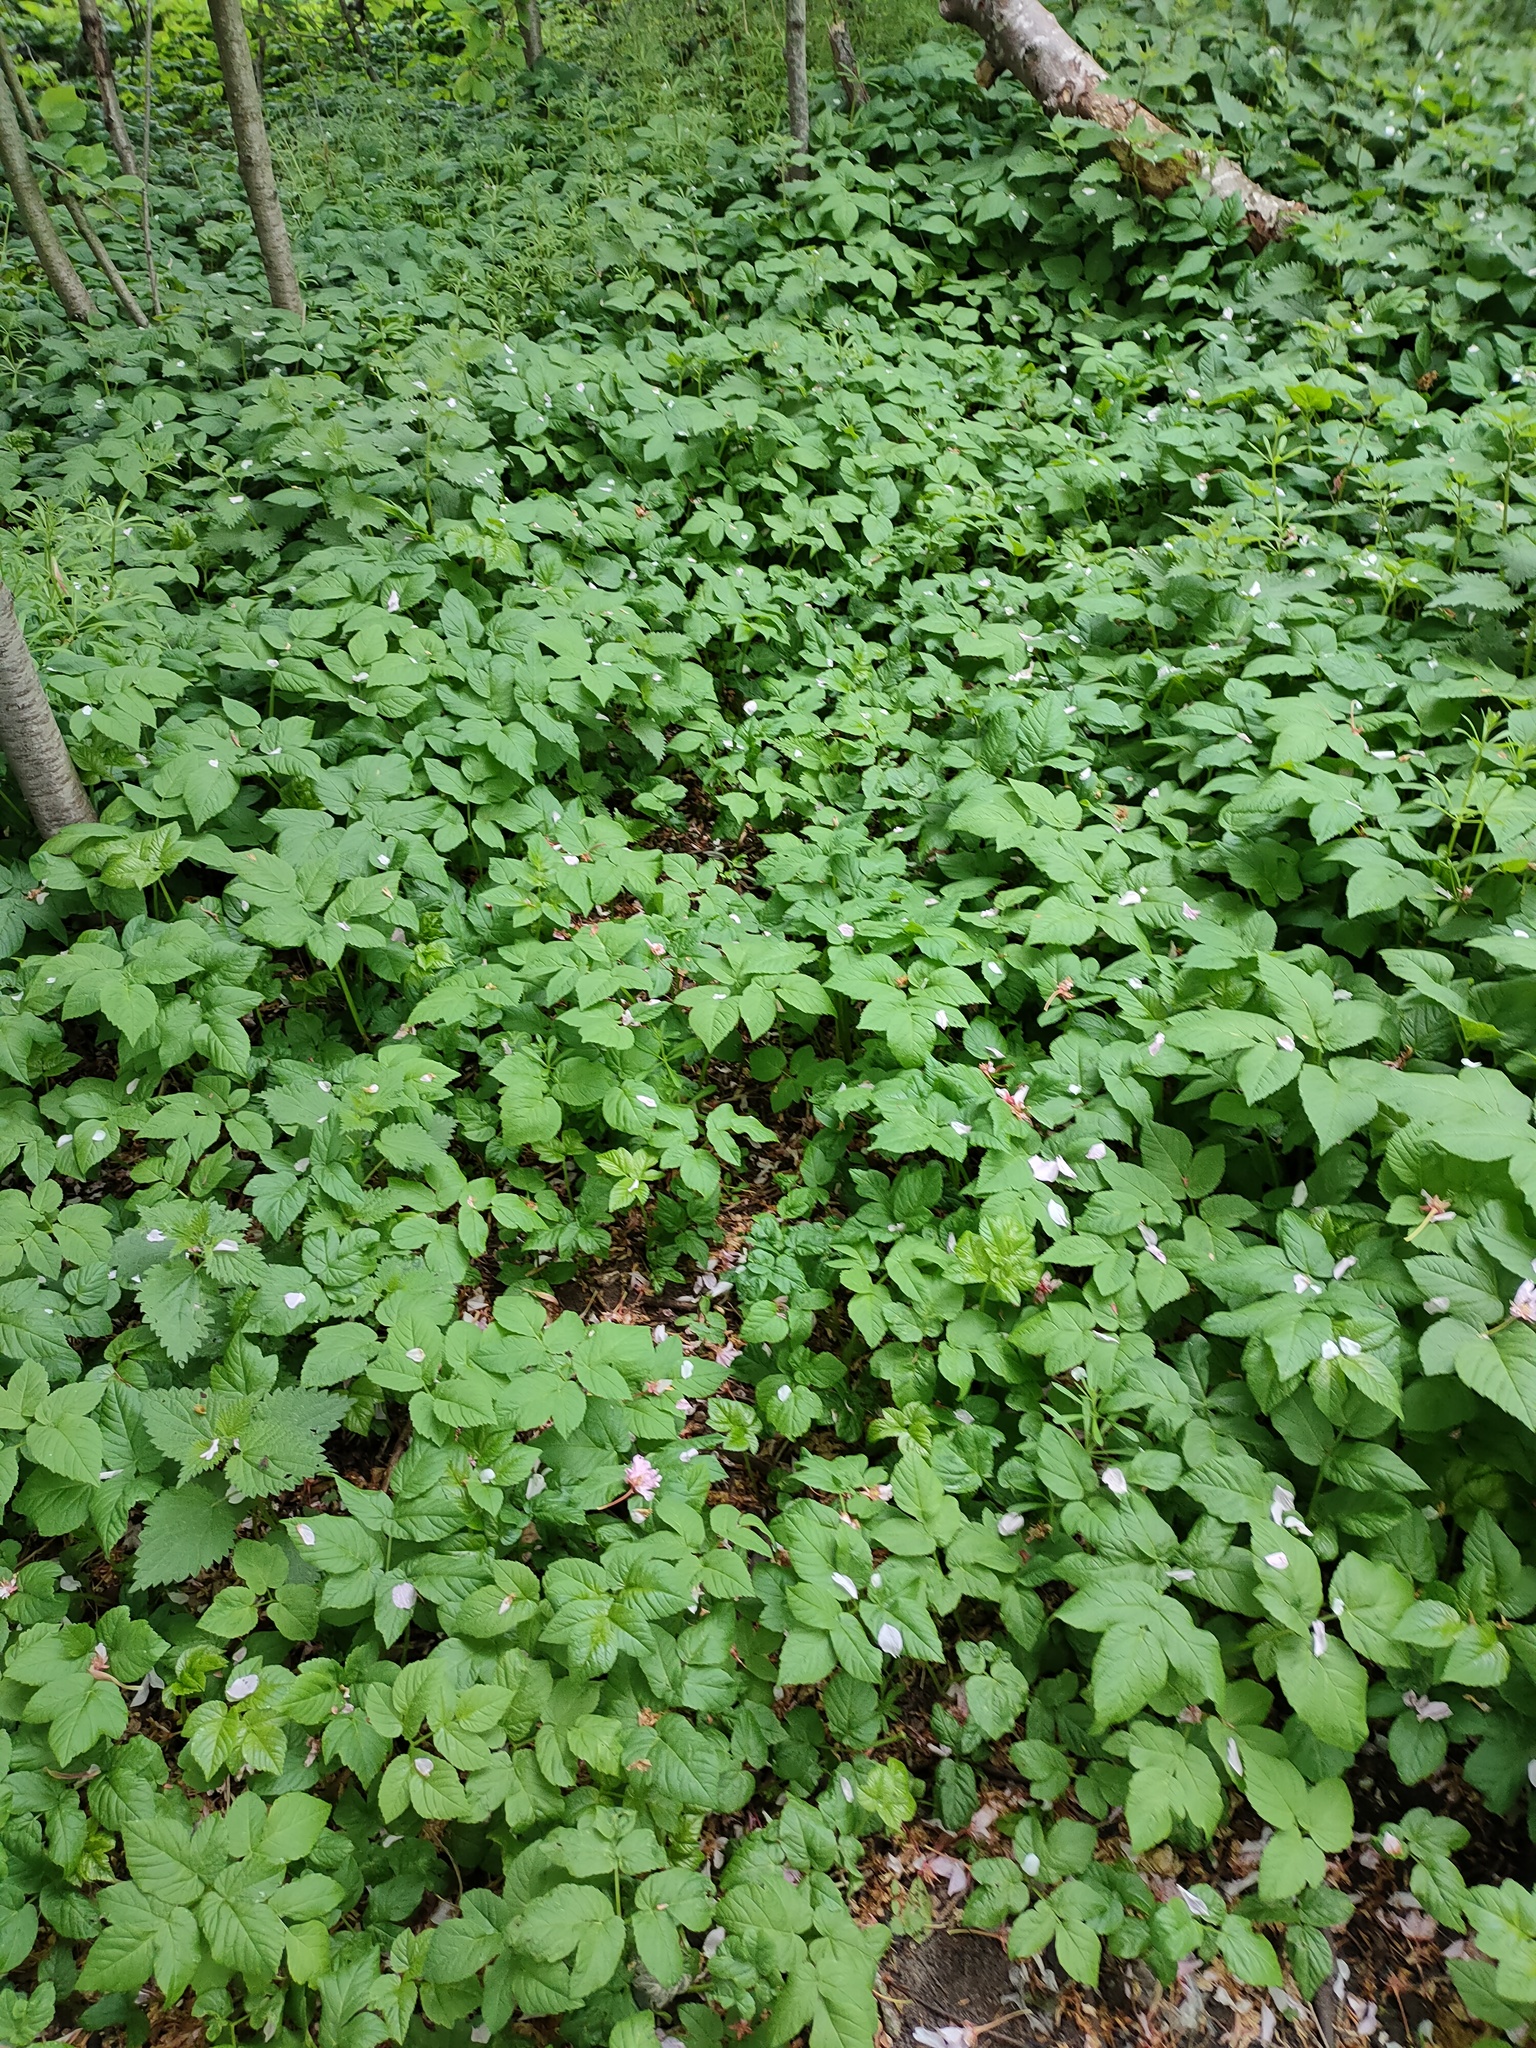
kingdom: Plantae
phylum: Tracheophyta
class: Magnoliopsida
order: Apiales
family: Apiaceae
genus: Aegopodium
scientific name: Aegopodium podagraria
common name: Ground-elder
